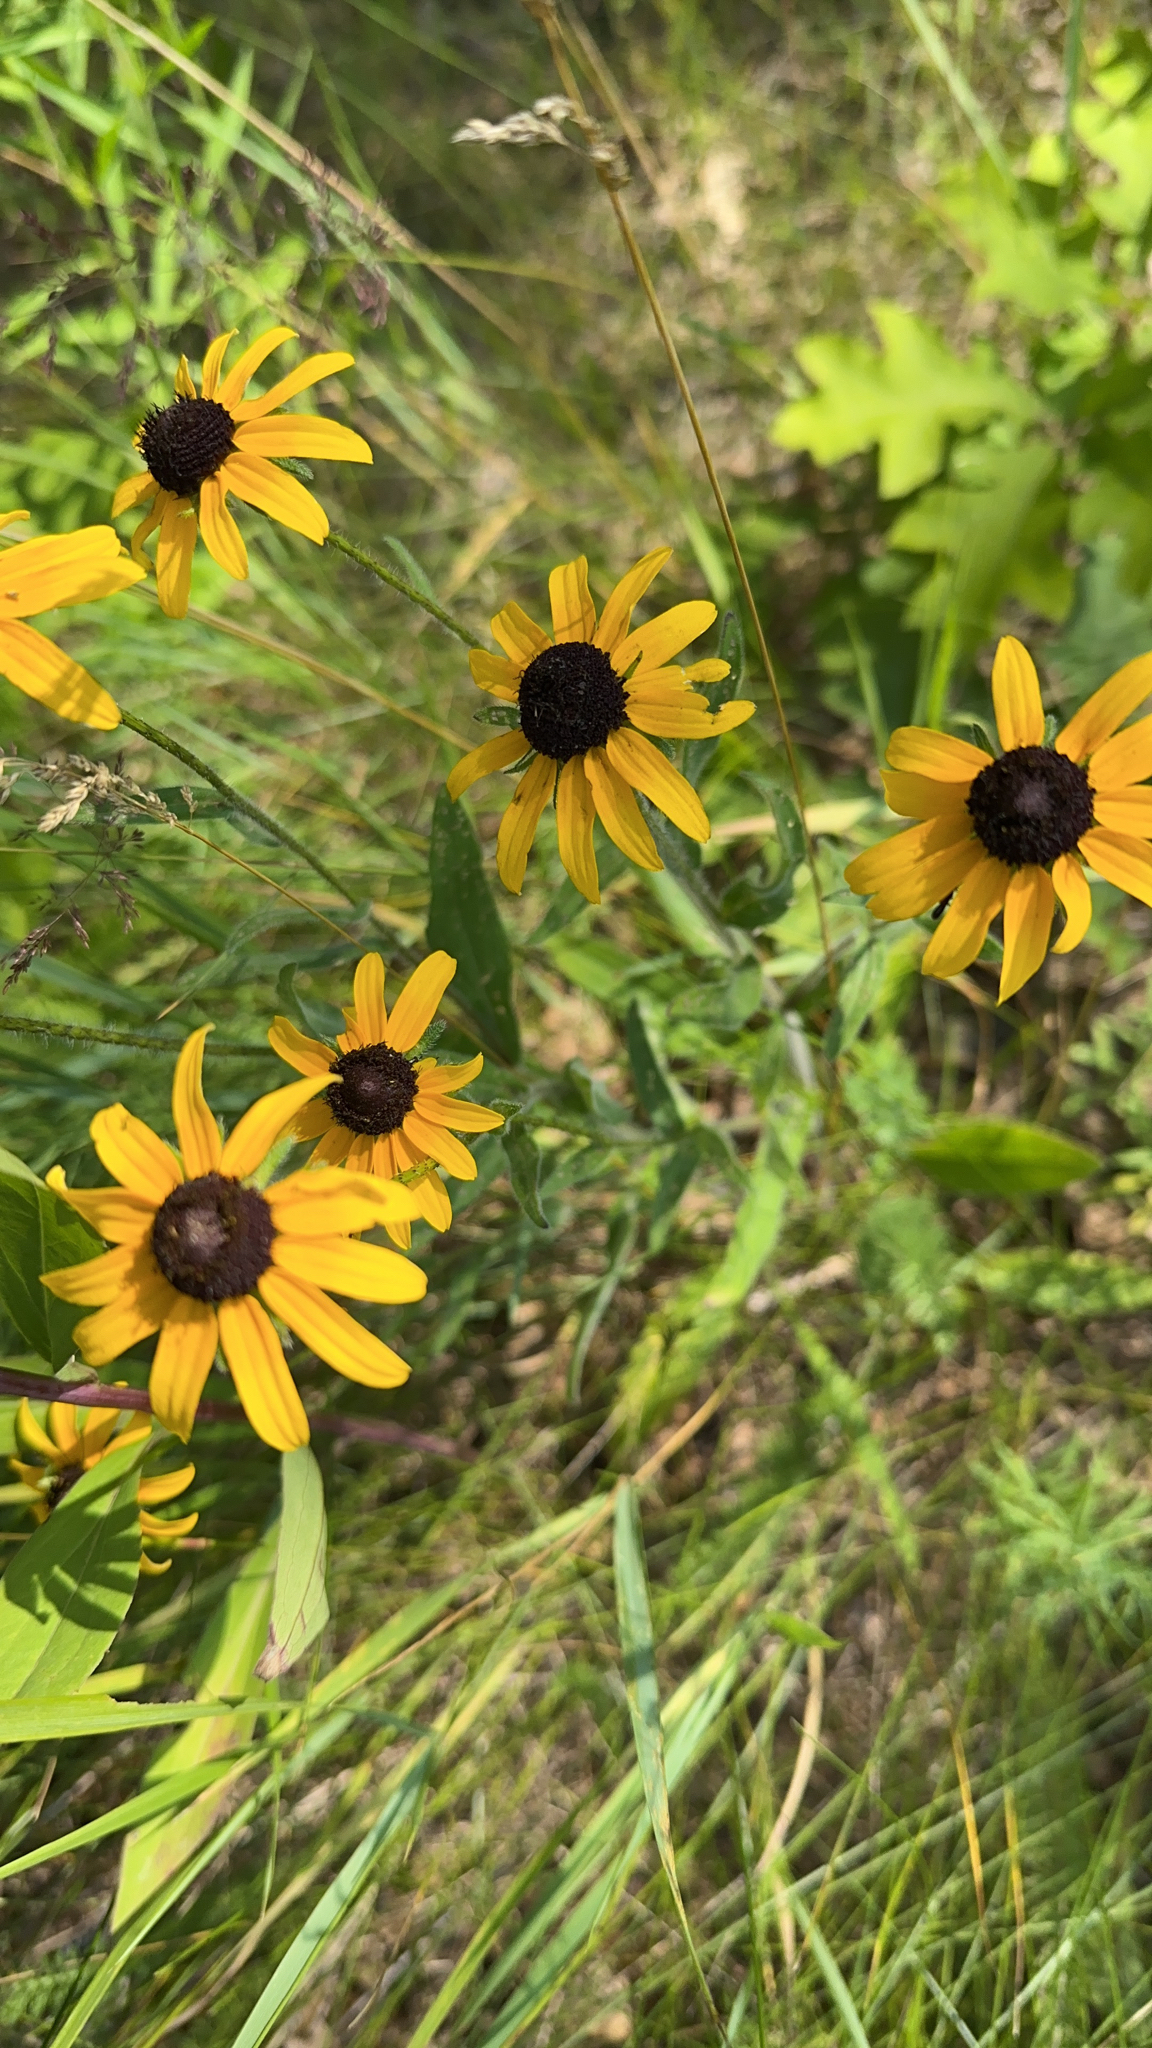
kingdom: Plantae
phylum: Tracheophyta
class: Magnoliopsida
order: Asterales
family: Asteraceae
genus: Rudbeckia
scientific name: Rudbeckia hirta
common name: Black-eyed-susan
